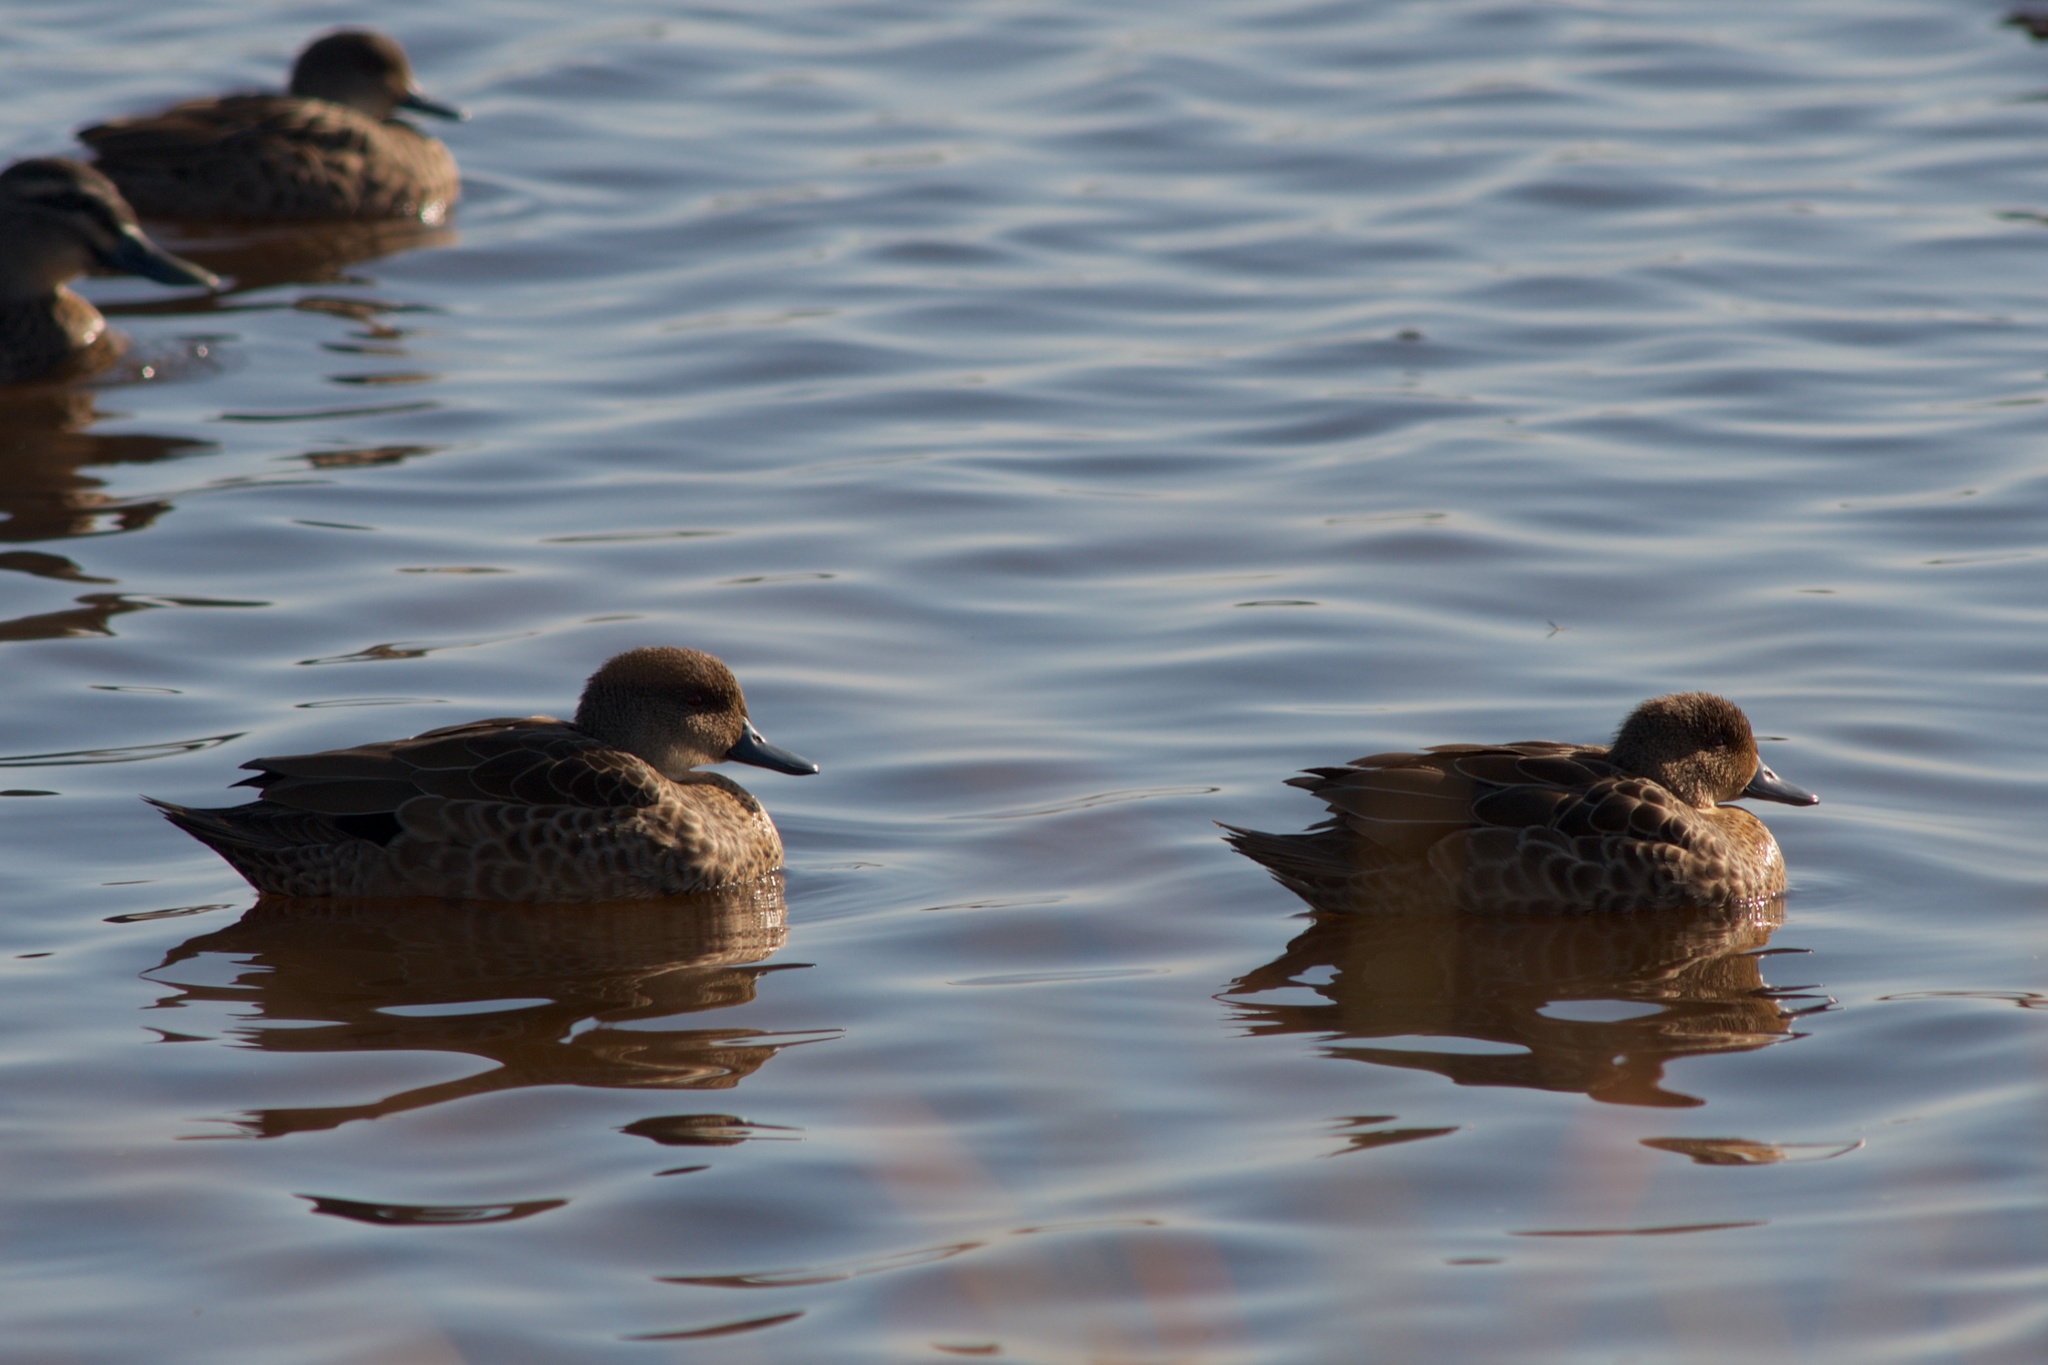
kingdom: Animalia
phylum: Chordata
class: Aves
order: Anseriformes
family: Anatidae
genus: Anas
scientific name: Anas gracilis
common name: Grey teal
